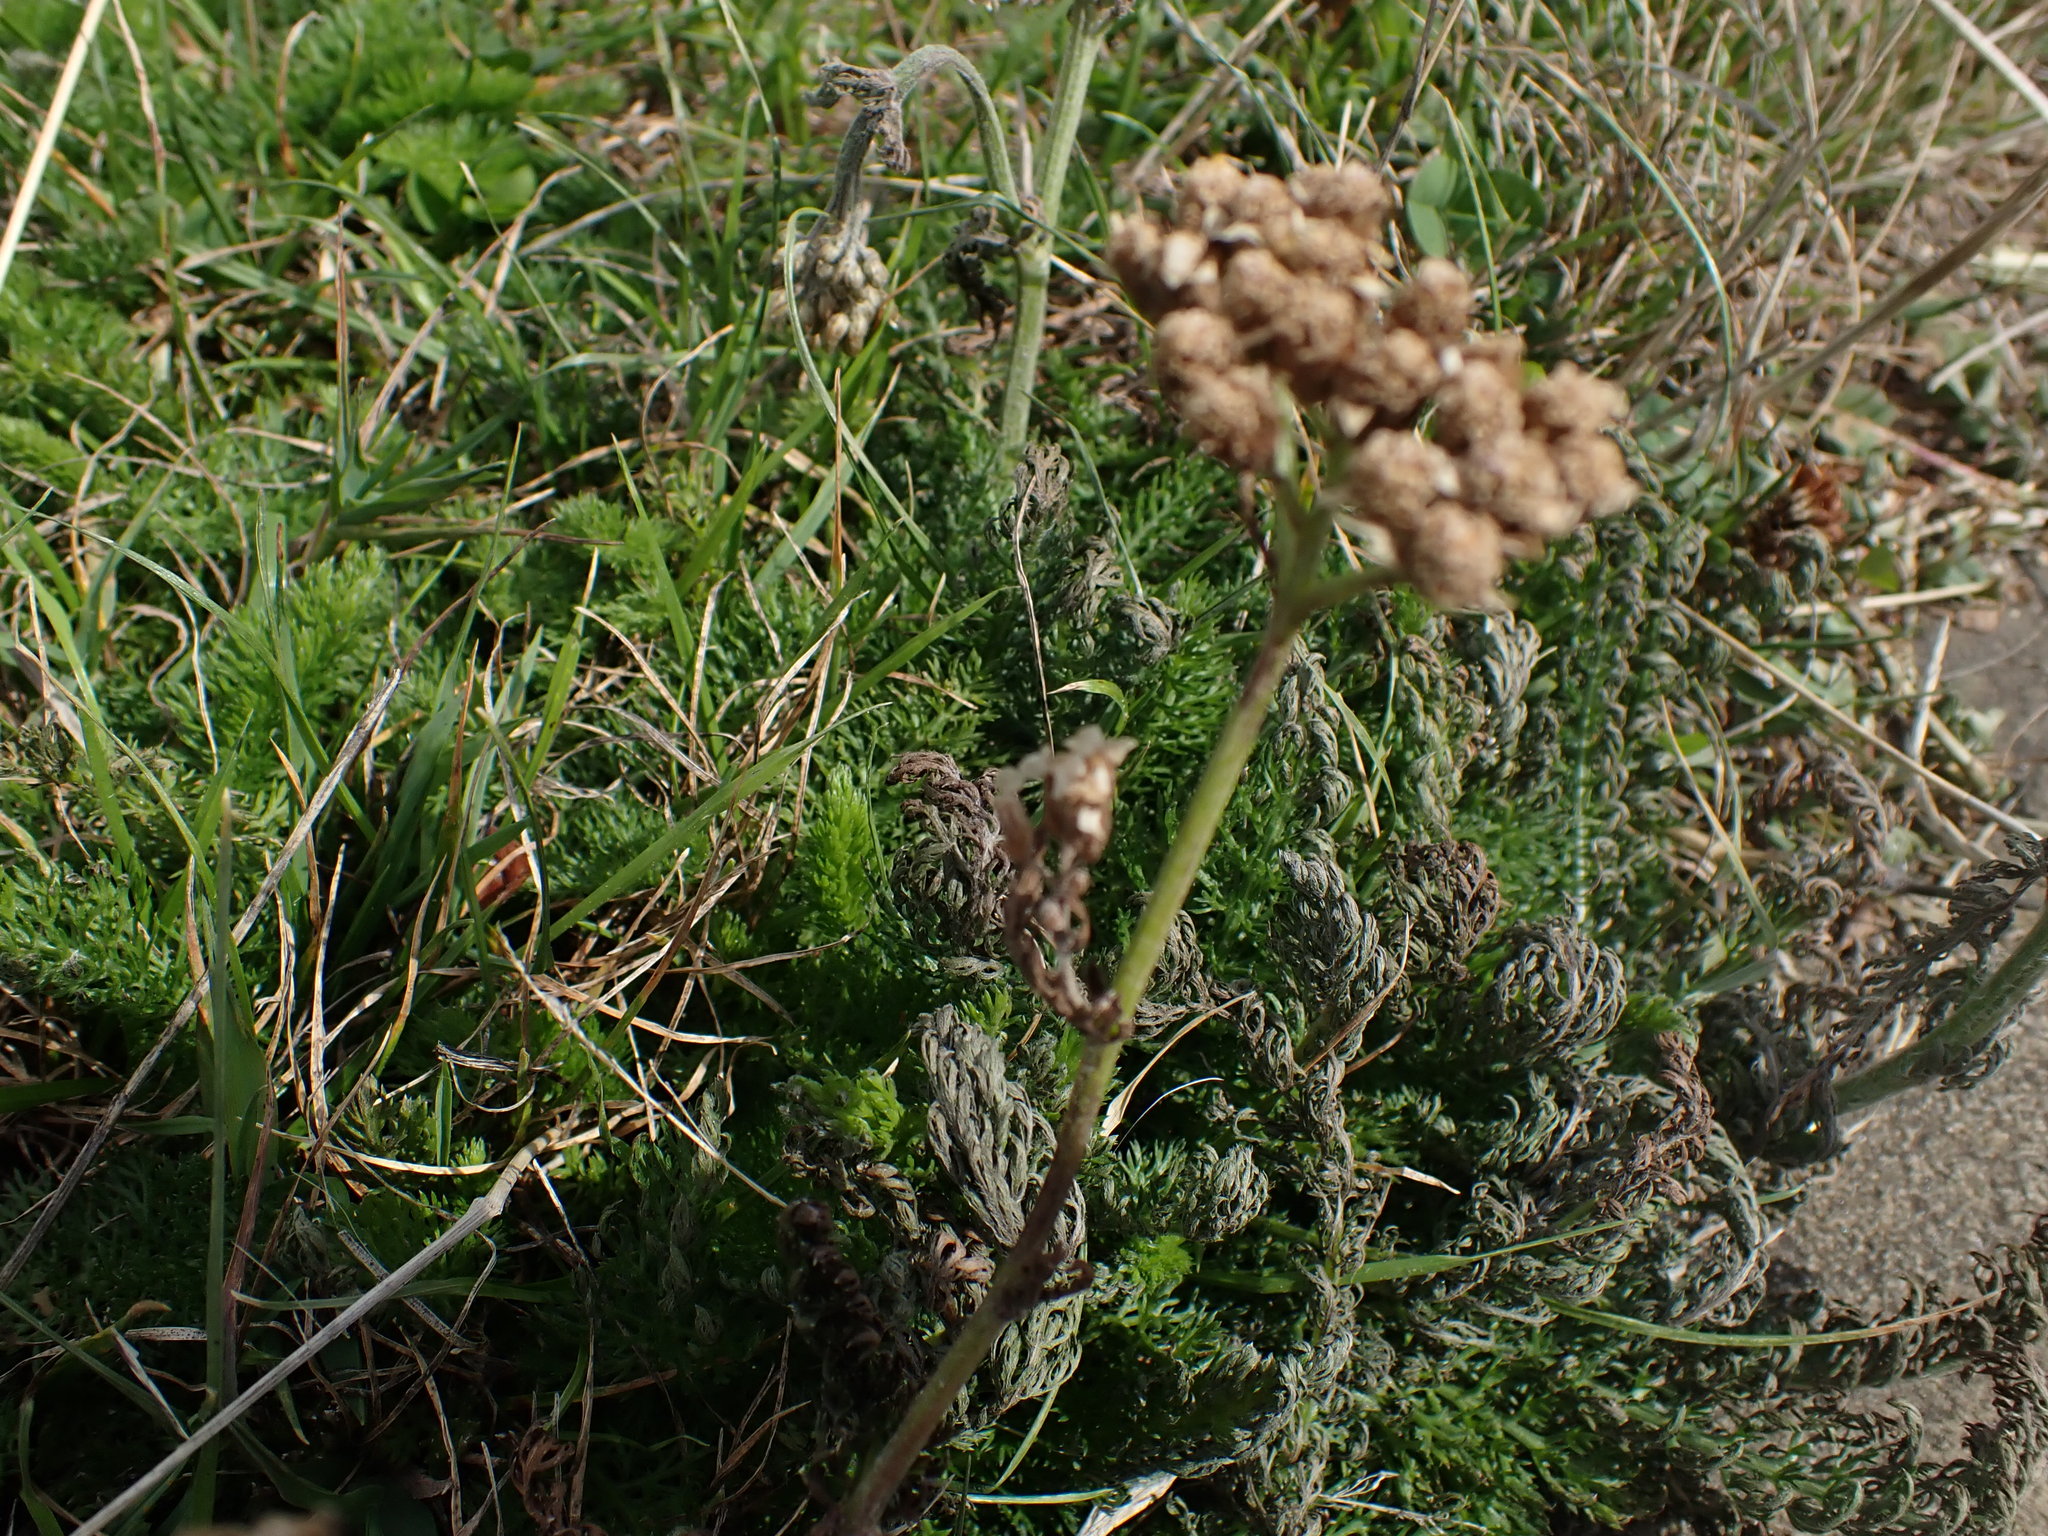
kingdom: Plantae
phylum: Tracheophyta
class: Magnoliopsida
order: Asterales
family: Asteraceae
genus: Achillea
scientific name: Achillea millefolium
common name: Yarrow
